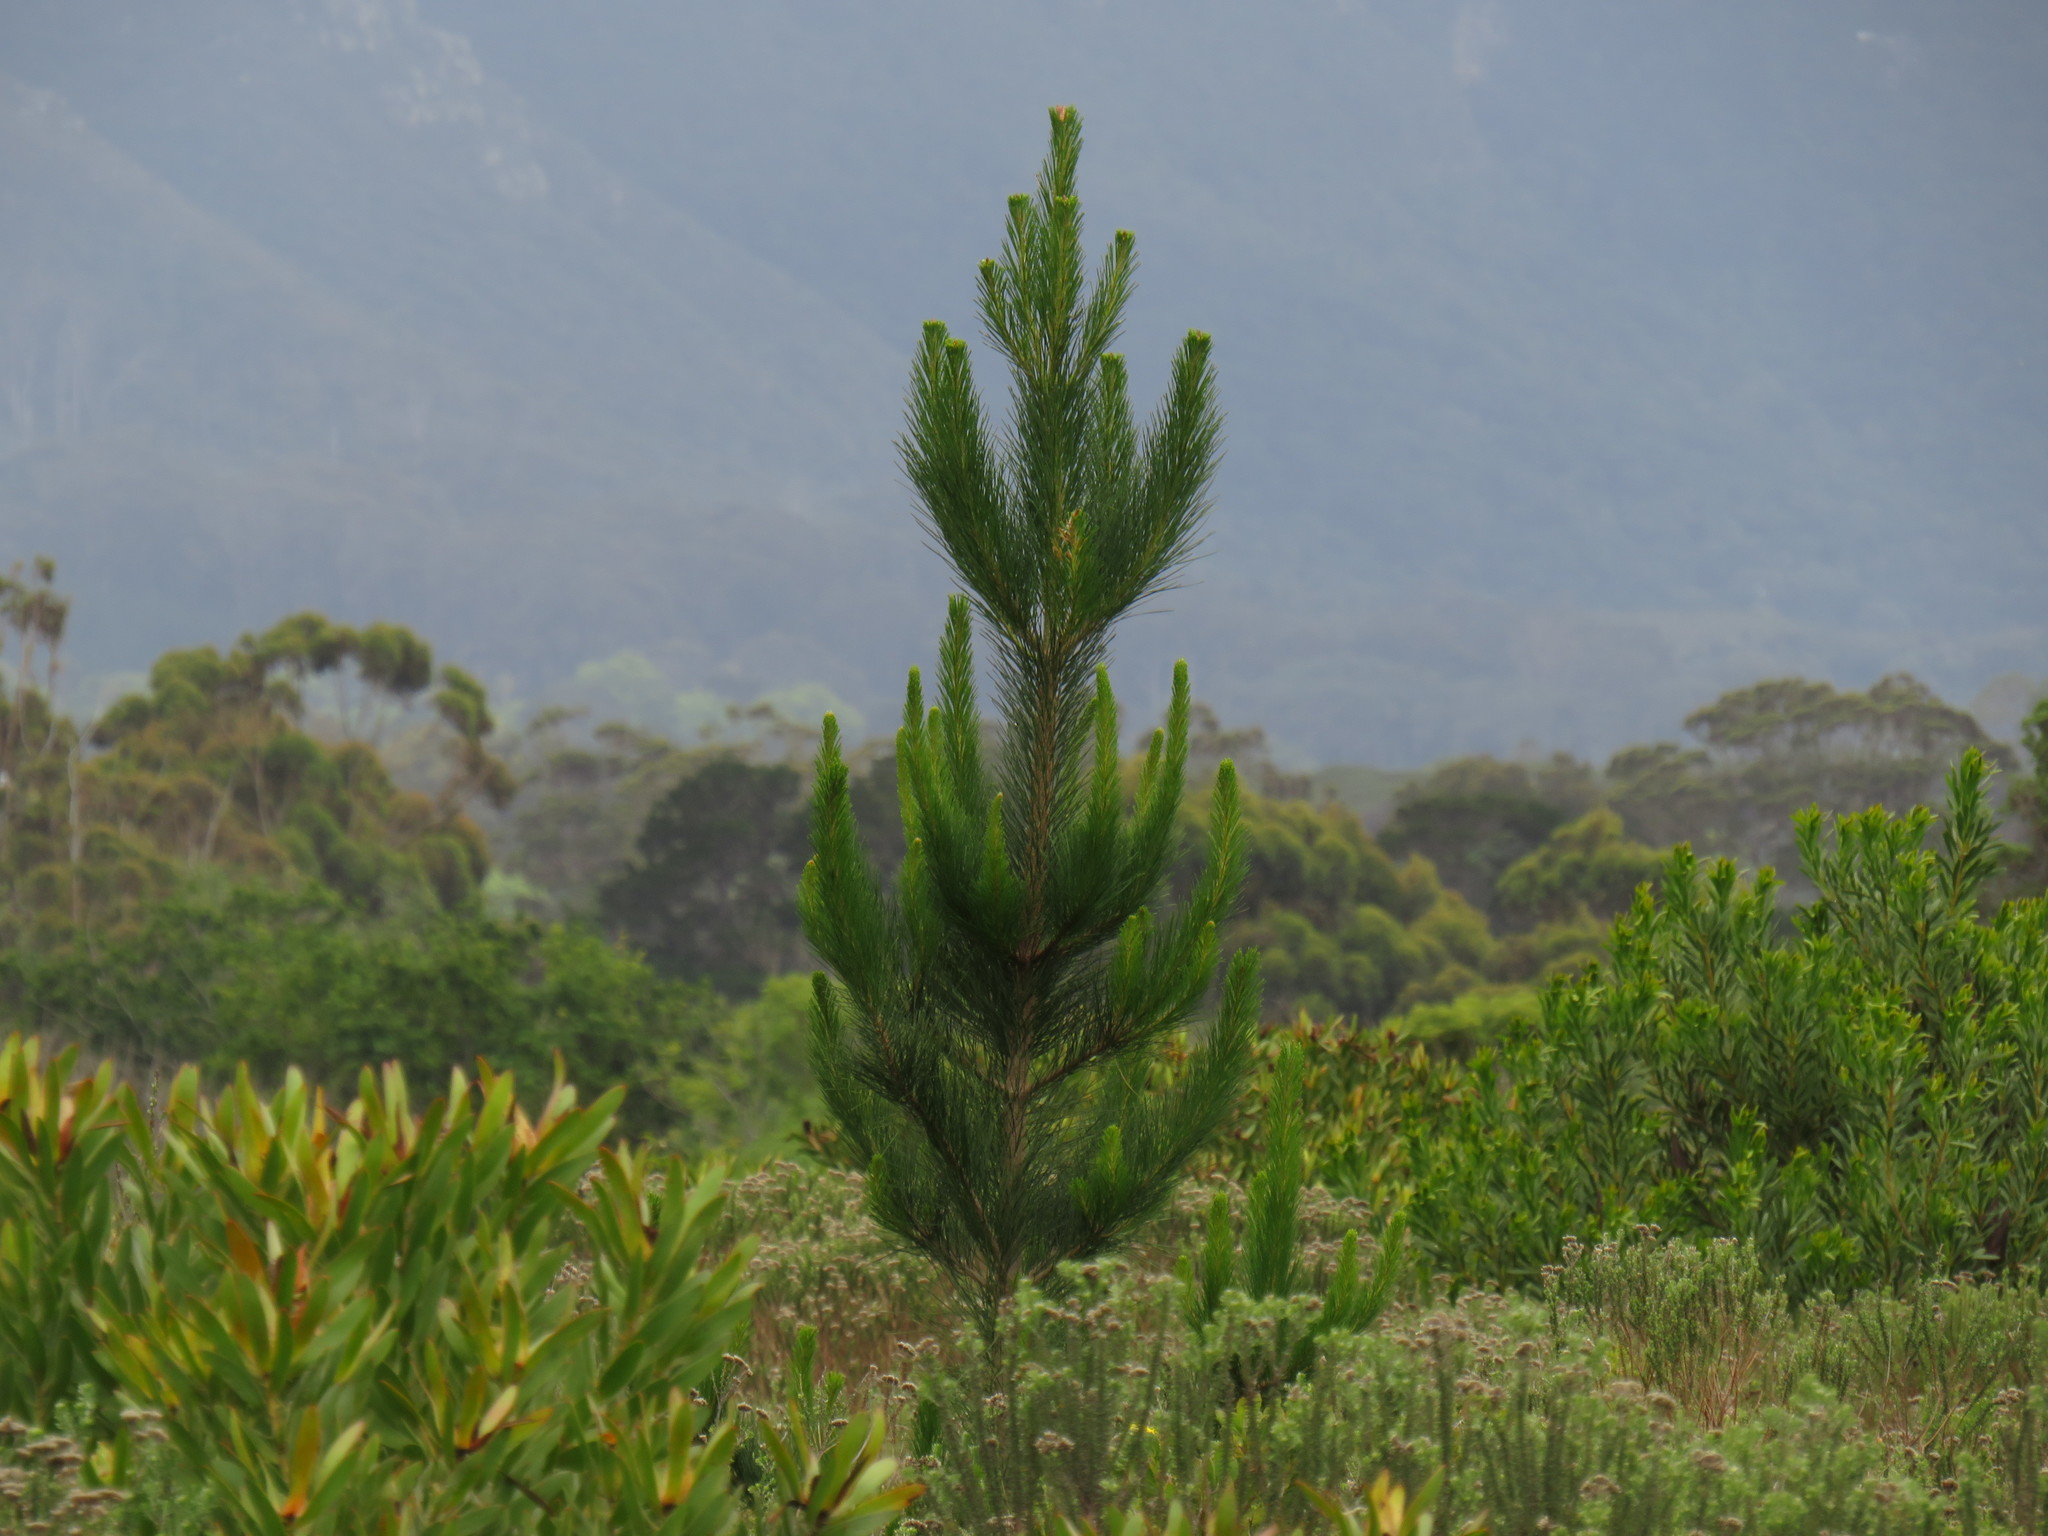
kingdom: Plantae
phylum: Tracheophyta
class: Pinopsida
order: Pinales
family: Pinaceae
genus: Pinus
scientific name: Pinus radiata
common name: Monterey pine
